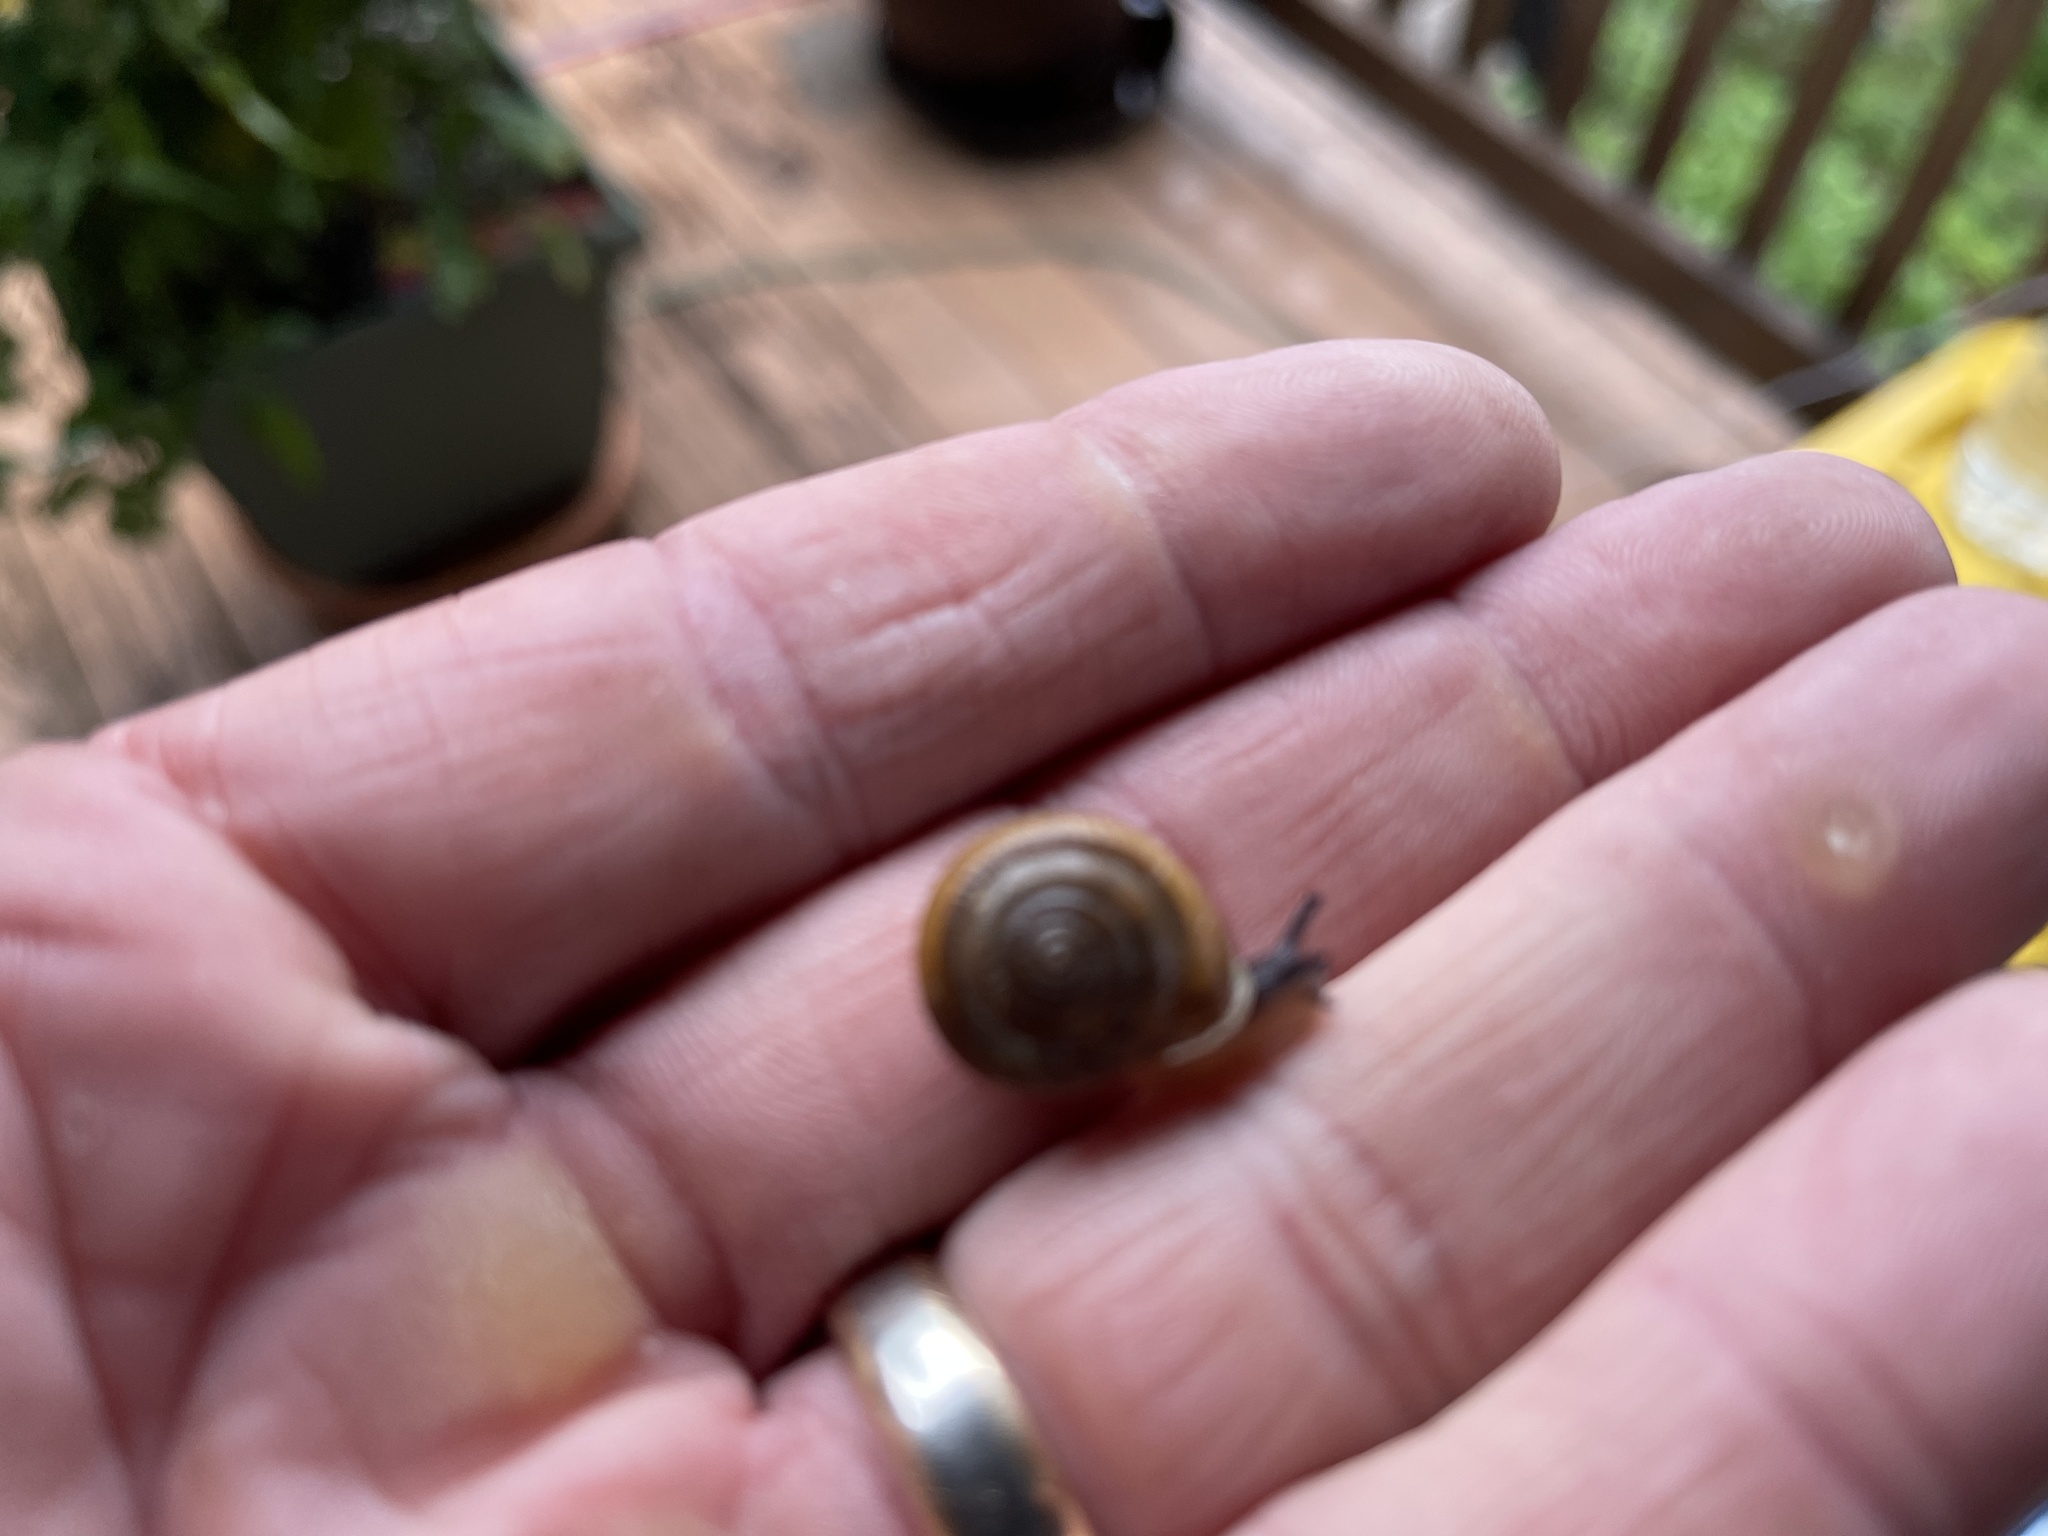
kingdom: Animalia
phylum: Mollusca
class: Gastropoda
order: Stylommatophora
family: Polygyridae
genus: Ashmunella
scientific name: Ashmunella rhyssa
